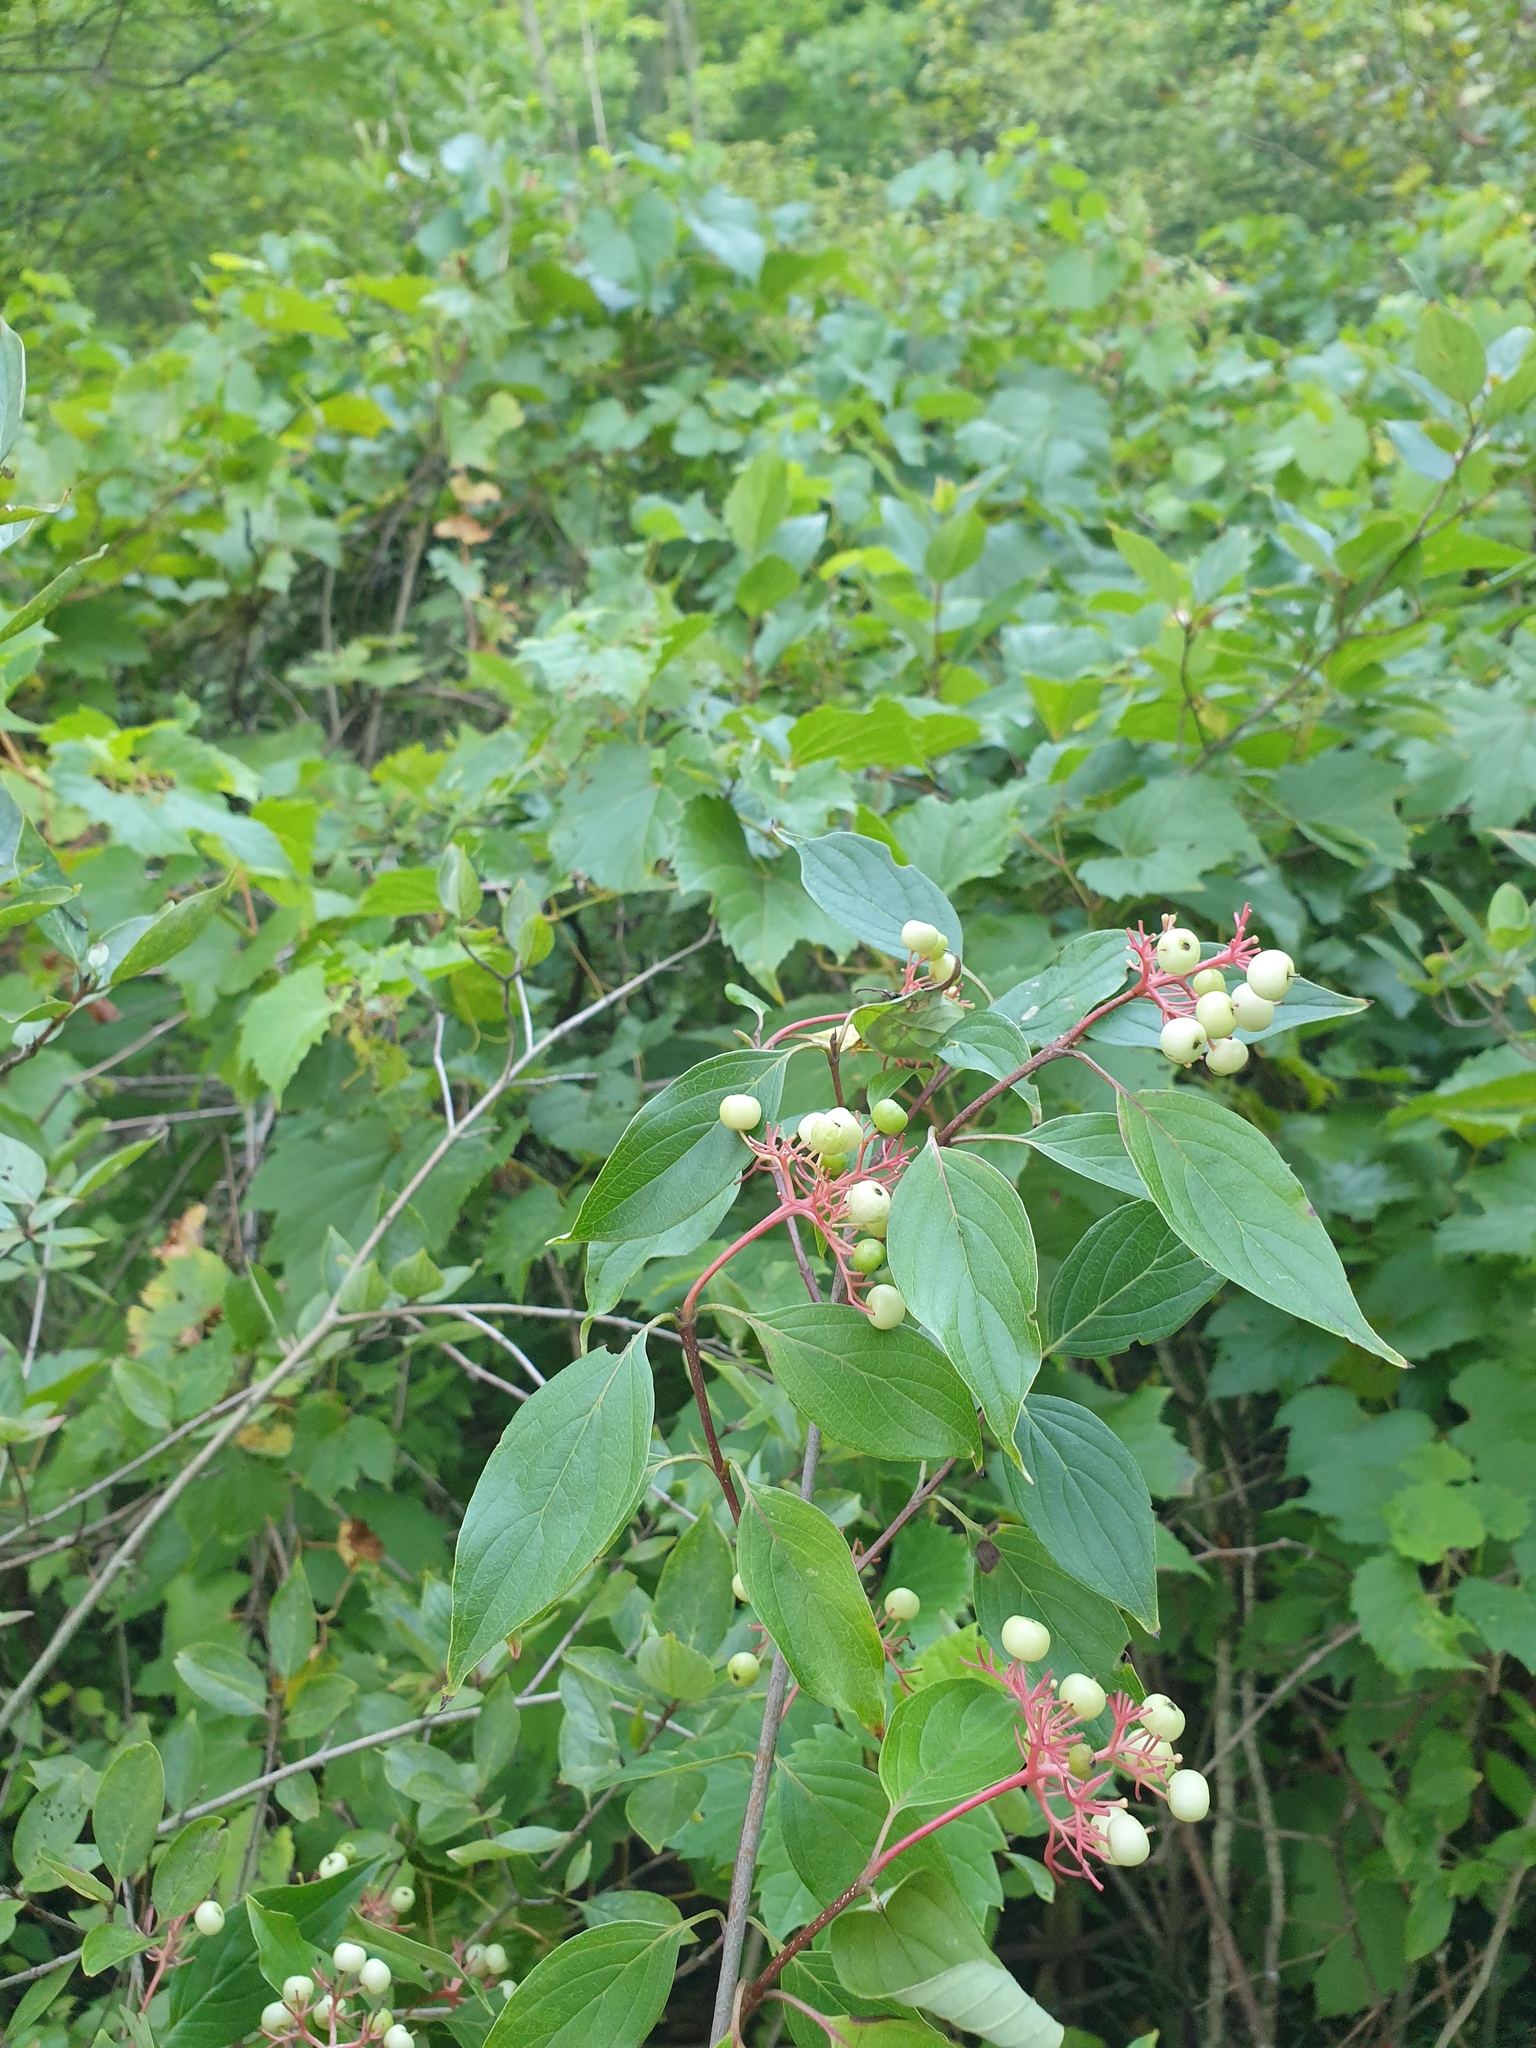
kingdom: Plantae
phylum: Tracheophyta
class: Magnoliopsida
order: Cornales
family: Cornaceae
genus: Cornus
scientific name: Cornus racemosa
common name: Panicled dogwood
